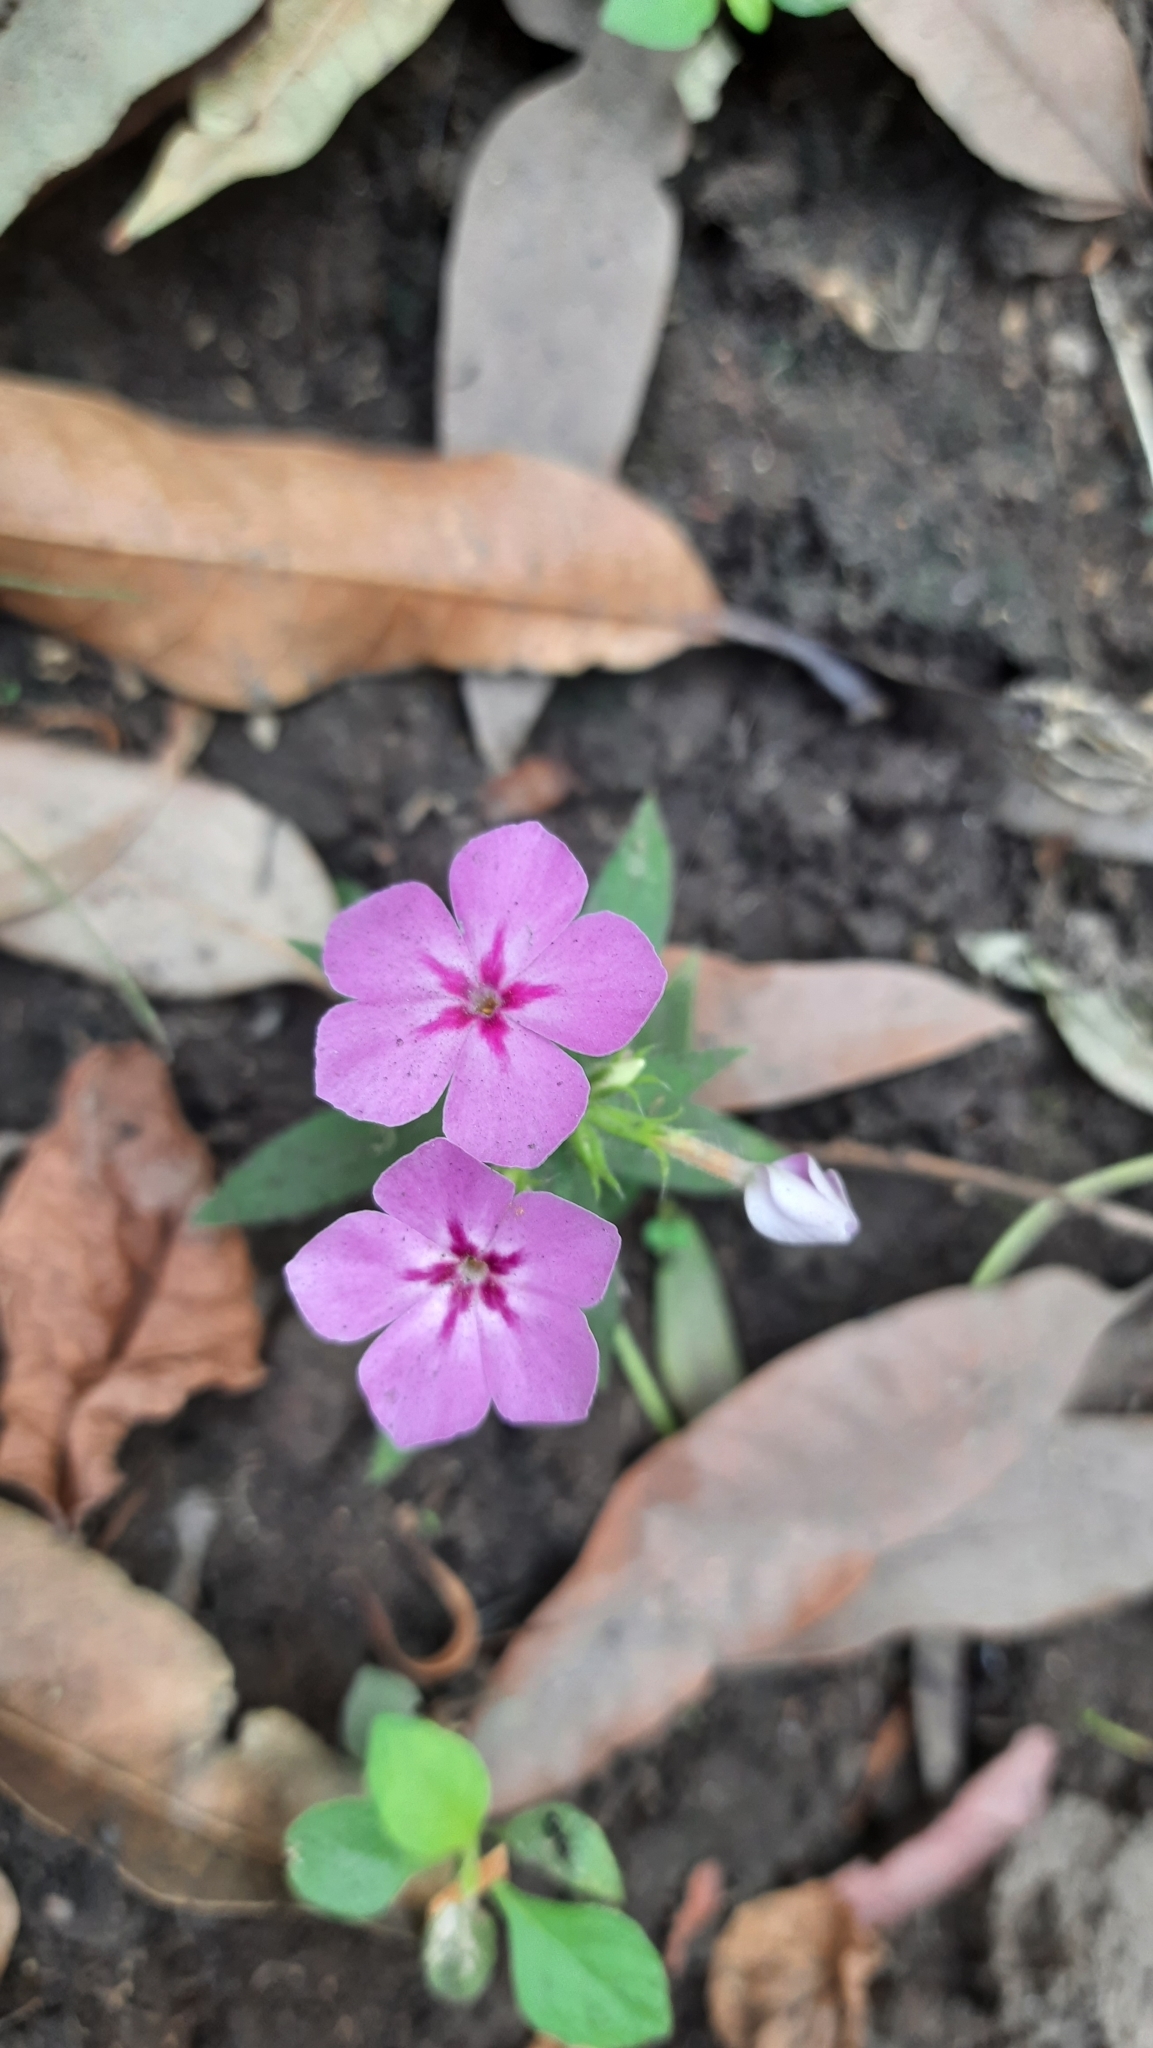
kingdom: Plantae
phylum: Tracheophyta
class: Magnoliopsida
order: Ericales
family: Polemoniaceae
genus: Phlox
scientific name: Phlox drummondii
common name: Drummond's phlox
